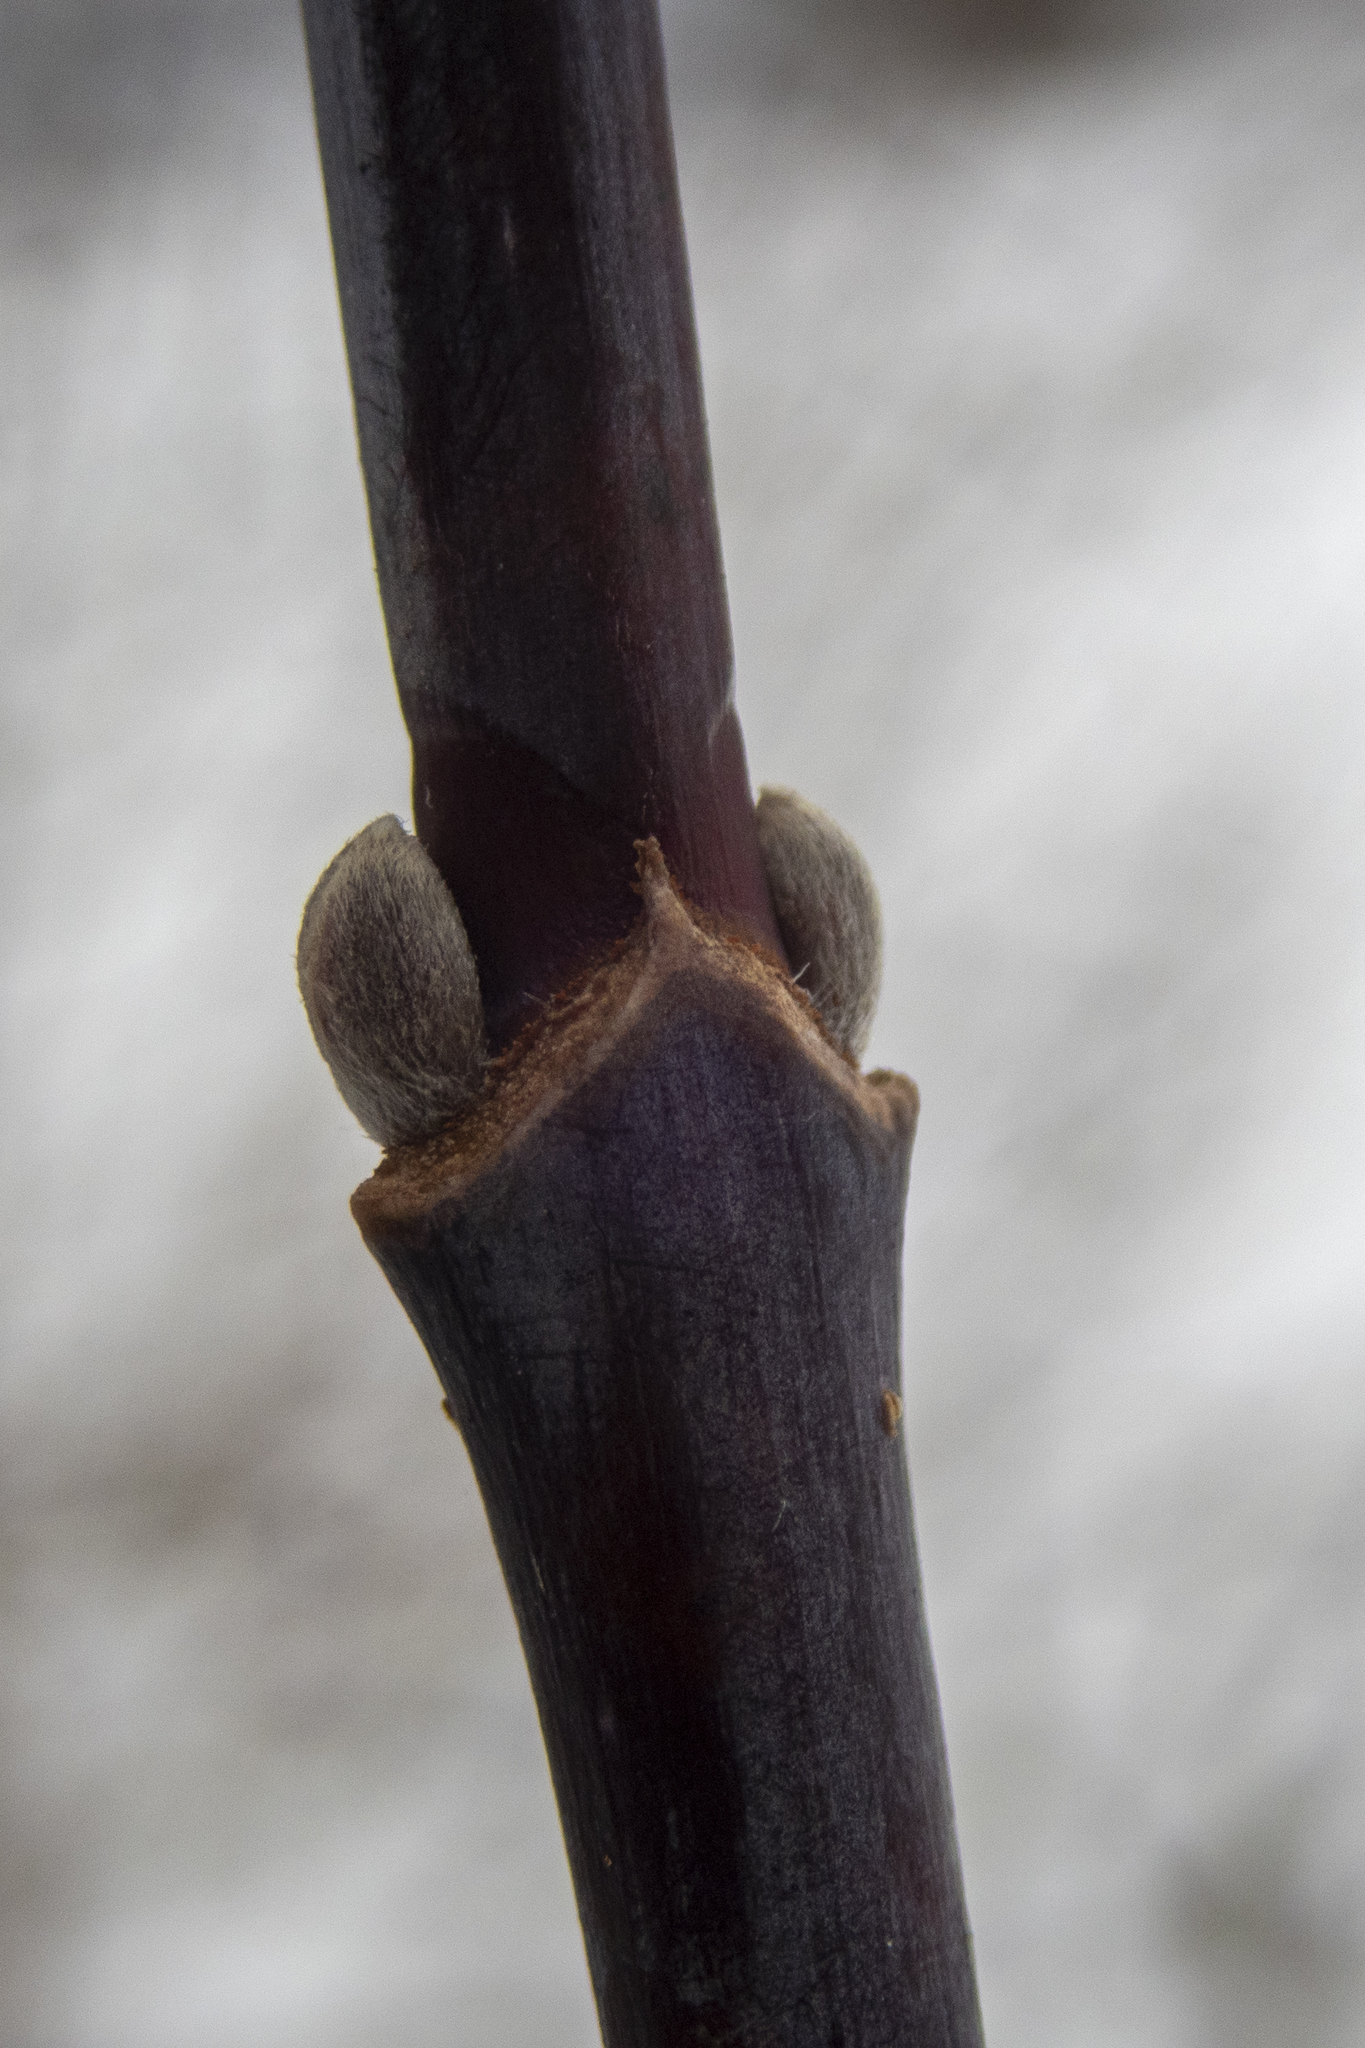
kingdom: Plantae
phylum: Tracheophyta
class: Magnoliopsida
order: Sapindales
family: Sapindaceae
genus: Acer
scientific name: Acer negundo
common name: Ashleaf maple
